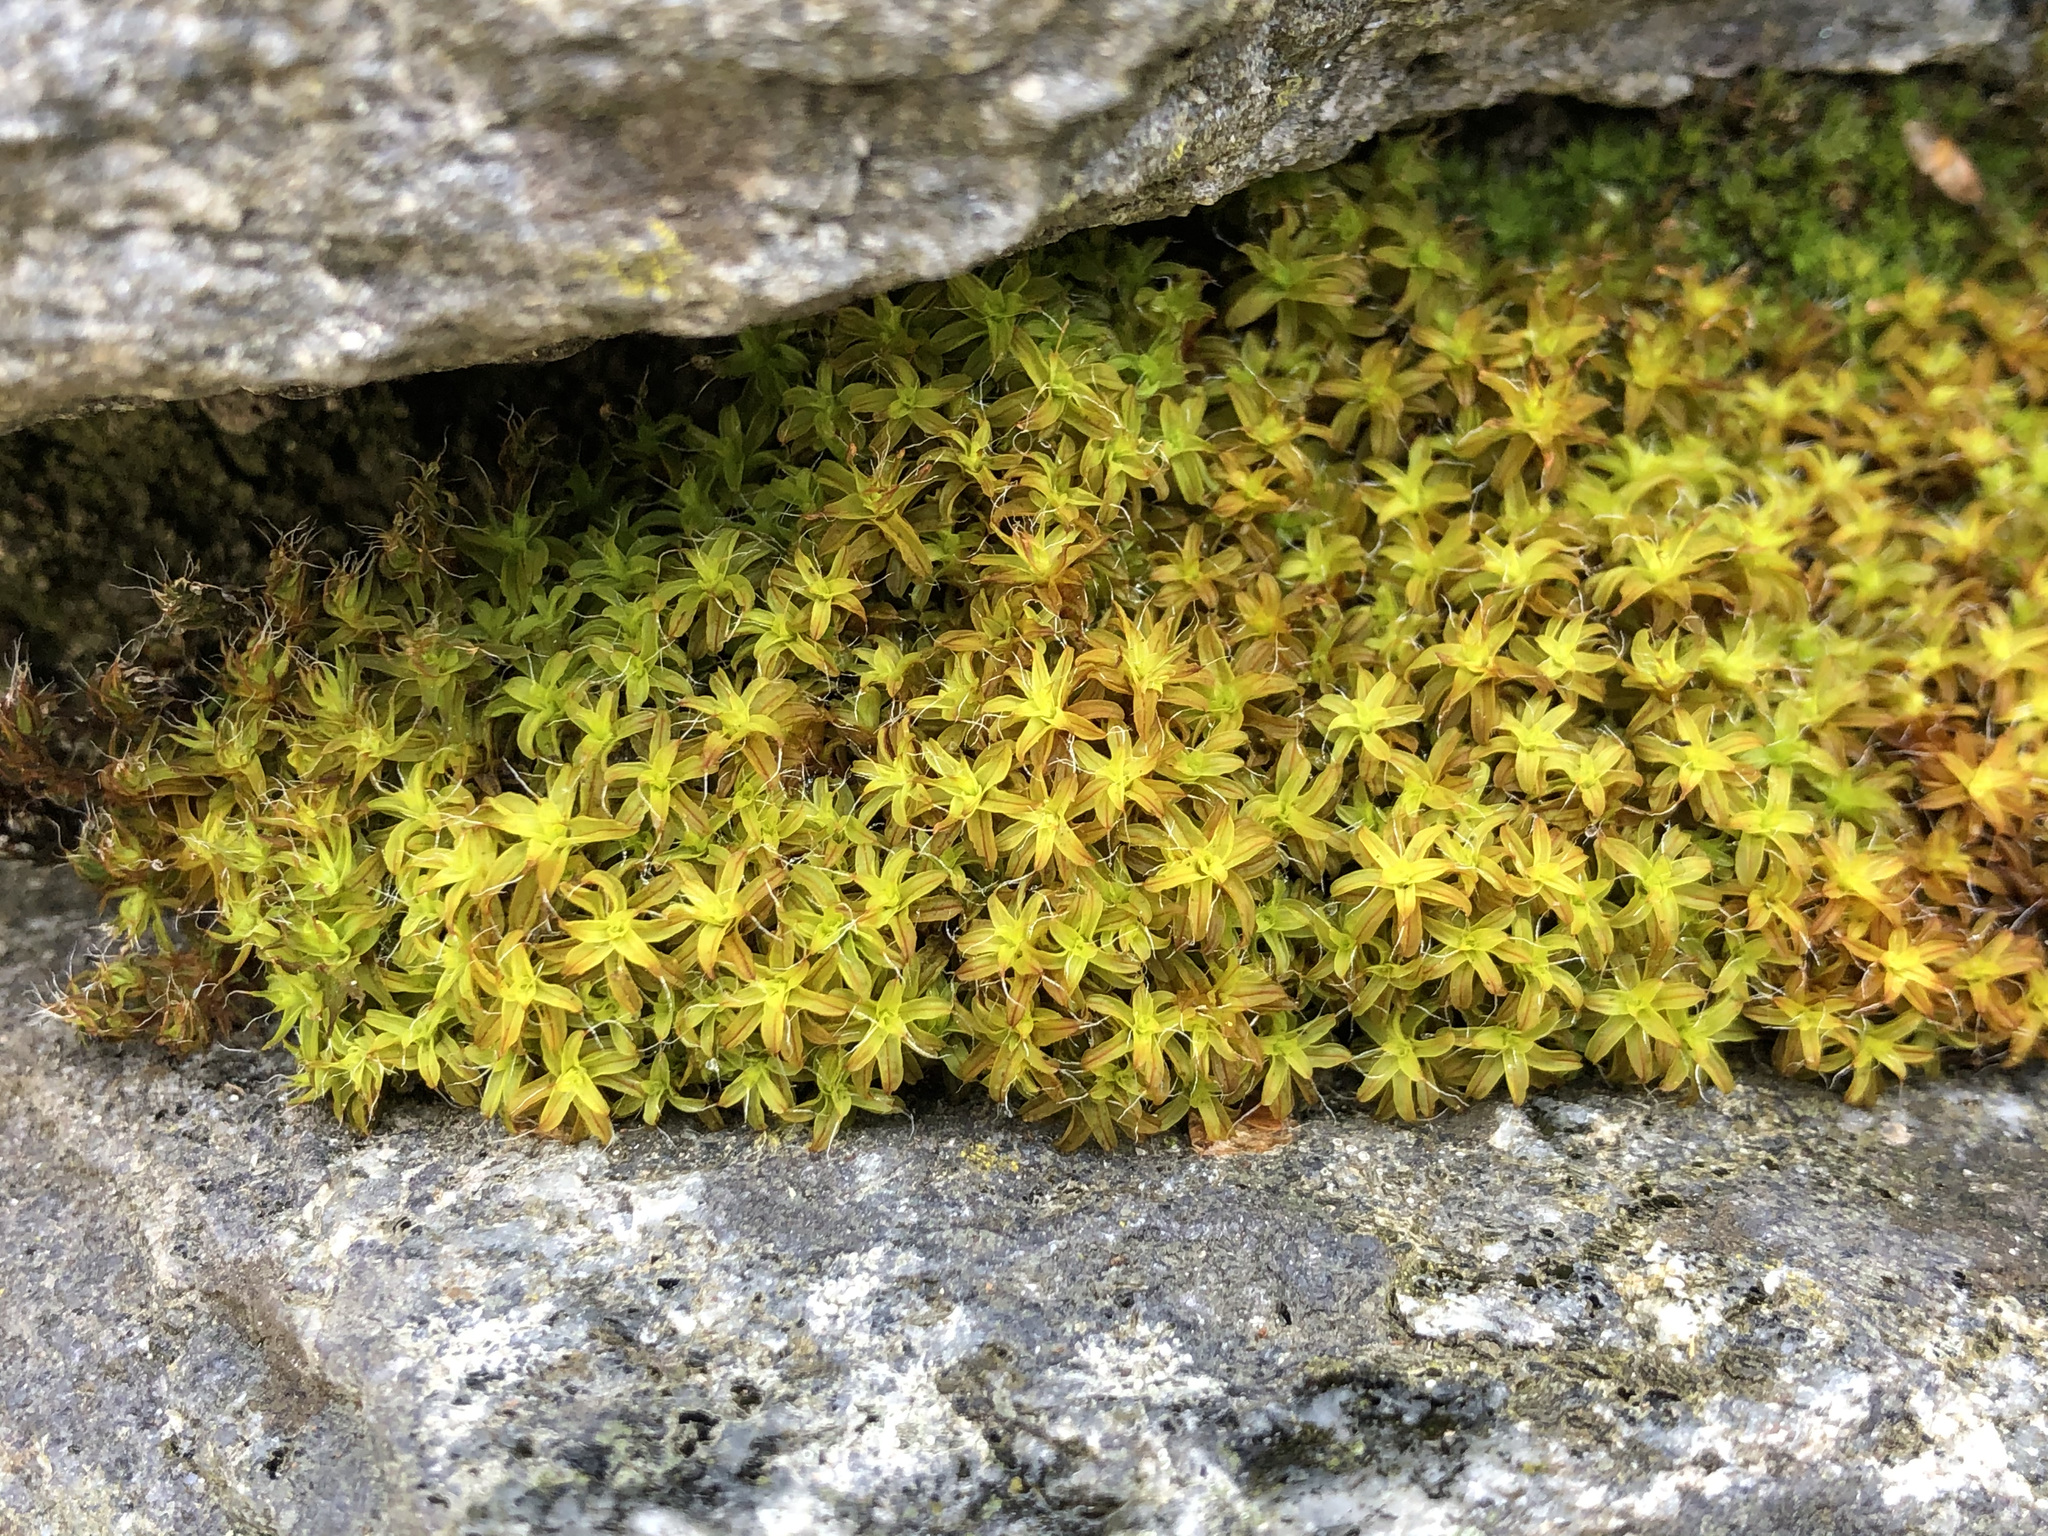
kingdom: Plantae
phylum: Bryophyta
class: Bryopsida
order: Pottiales
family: Pottiaceae
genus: Syntrichia
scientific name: Syntrichia ruralis
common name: Sidewalk screw moss
